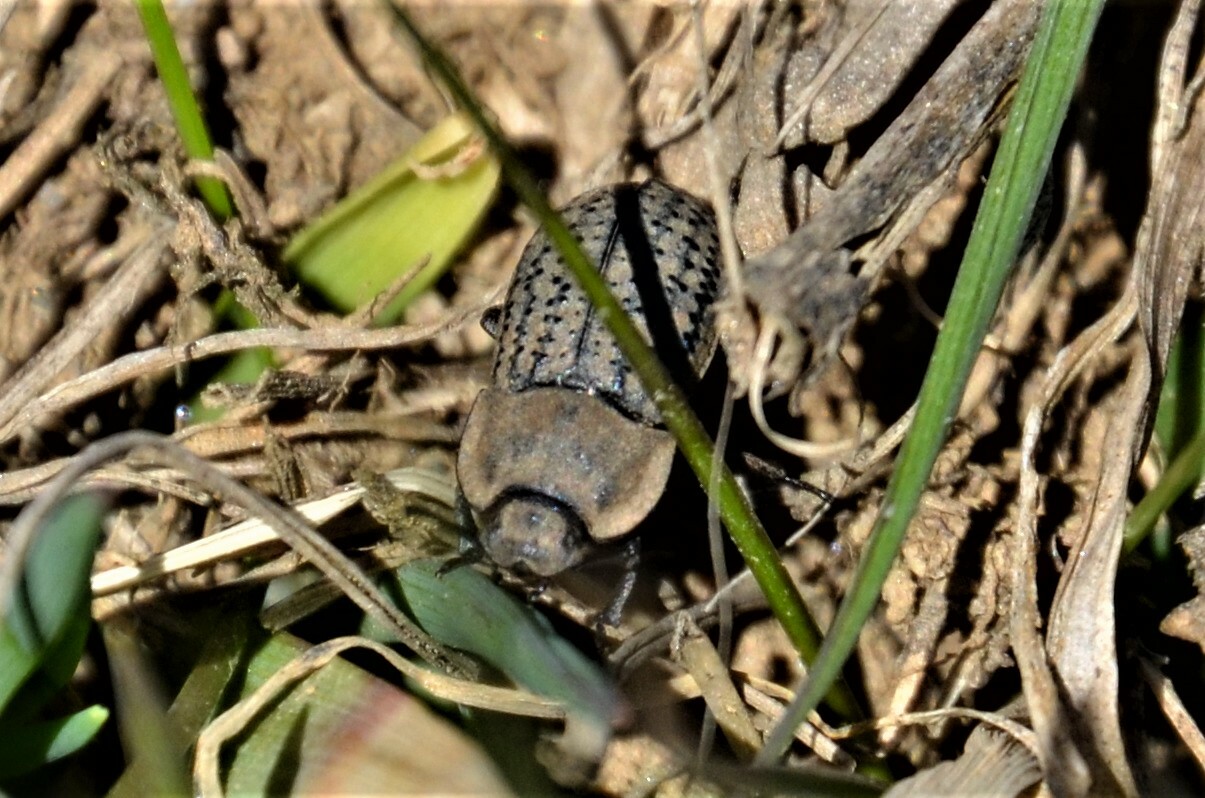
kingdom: Animalia
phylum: Arthropoda
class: Insecta
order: Coleoptera
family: Tenebrionidae
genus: Opatrum
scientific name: Opatrum sabulosum
